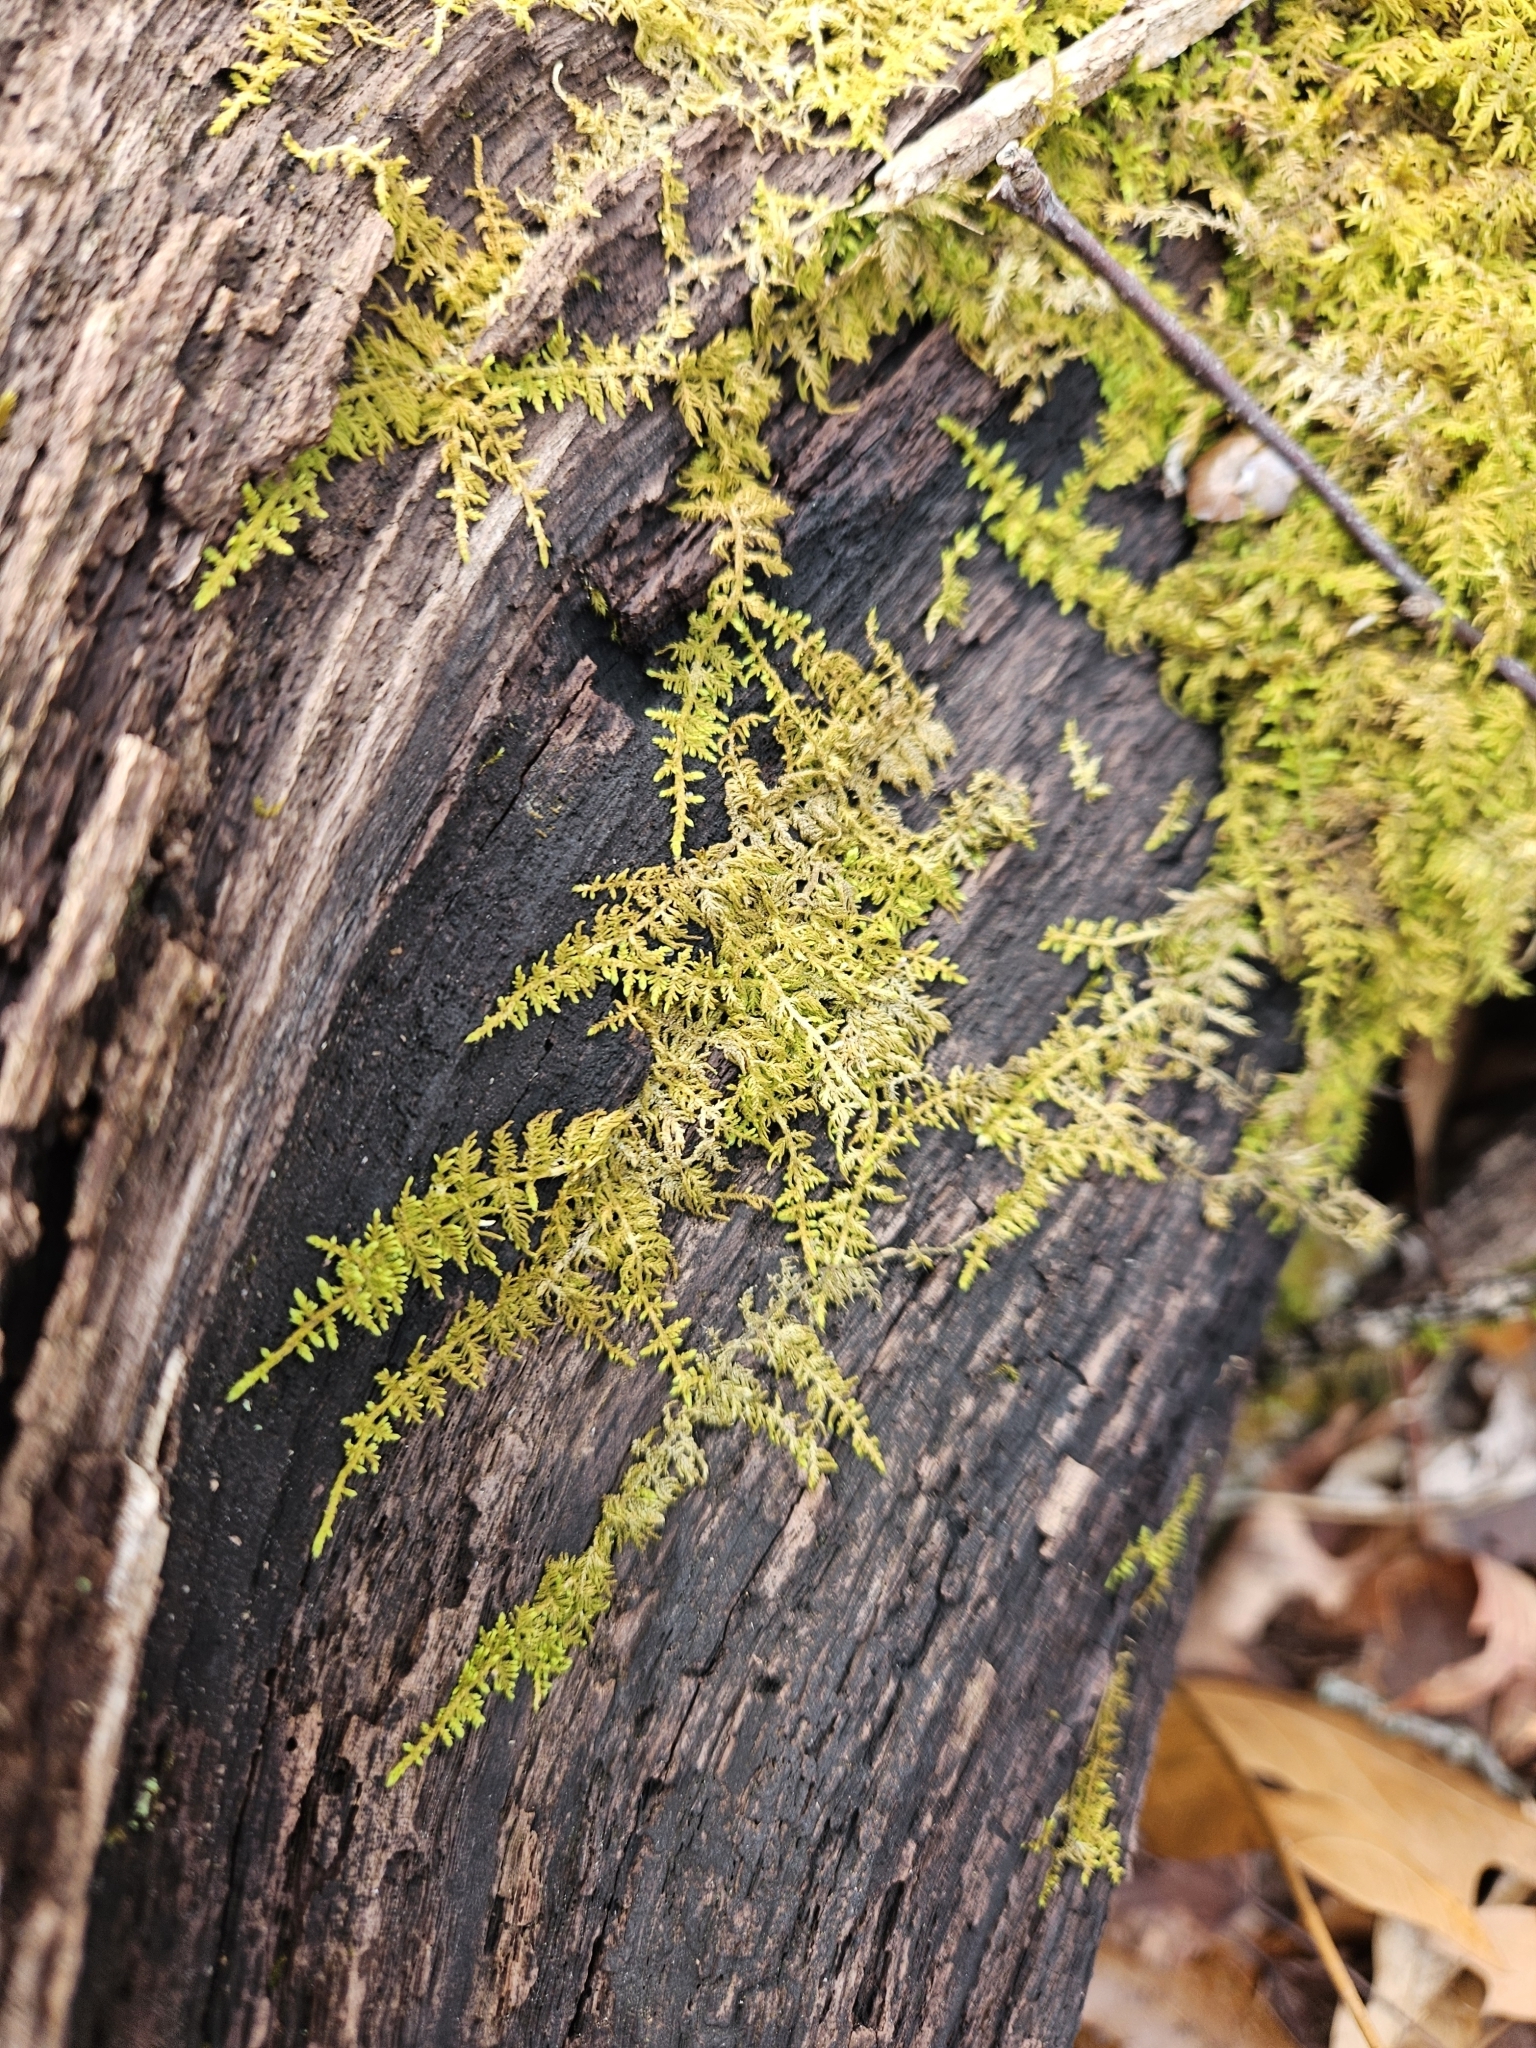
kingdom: Plantae
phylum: Bryophyta
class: Bryopsida
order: Hypnales
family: Thuidiaceae
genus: Thuidium
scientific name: Thuidium delicatulum
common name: Delicate fern moss
